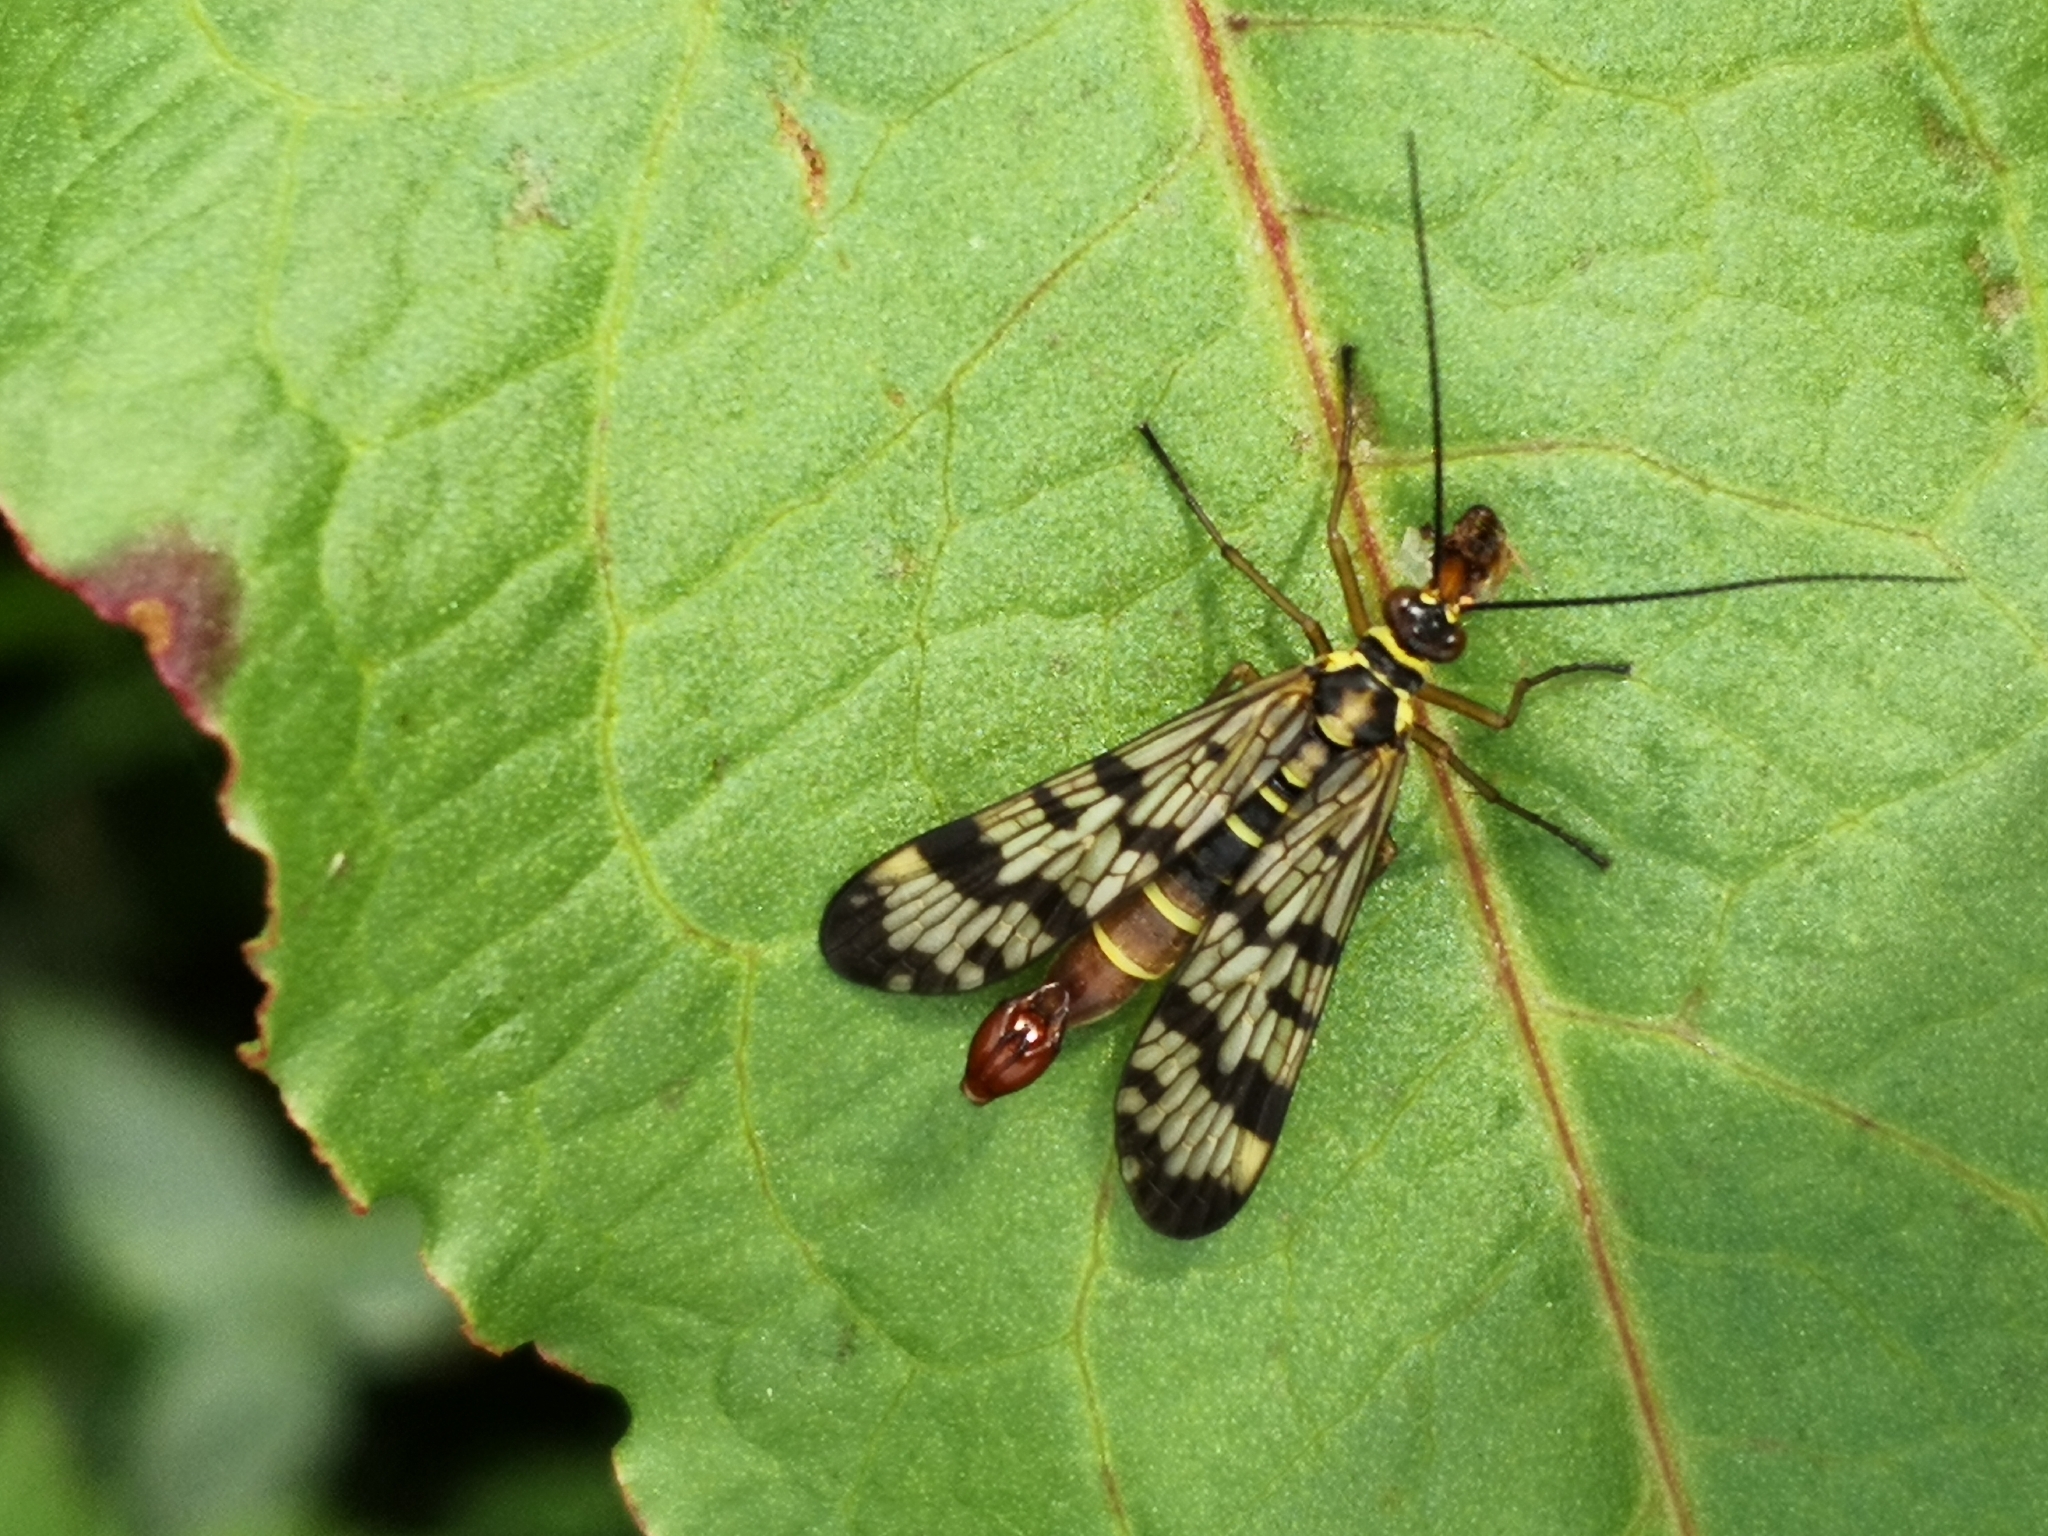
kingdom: Animalia
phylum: Arthropoda
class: Insecta
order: Mecoptera
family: Panorpidae
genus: Panorpa
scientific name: Panorpa communis
